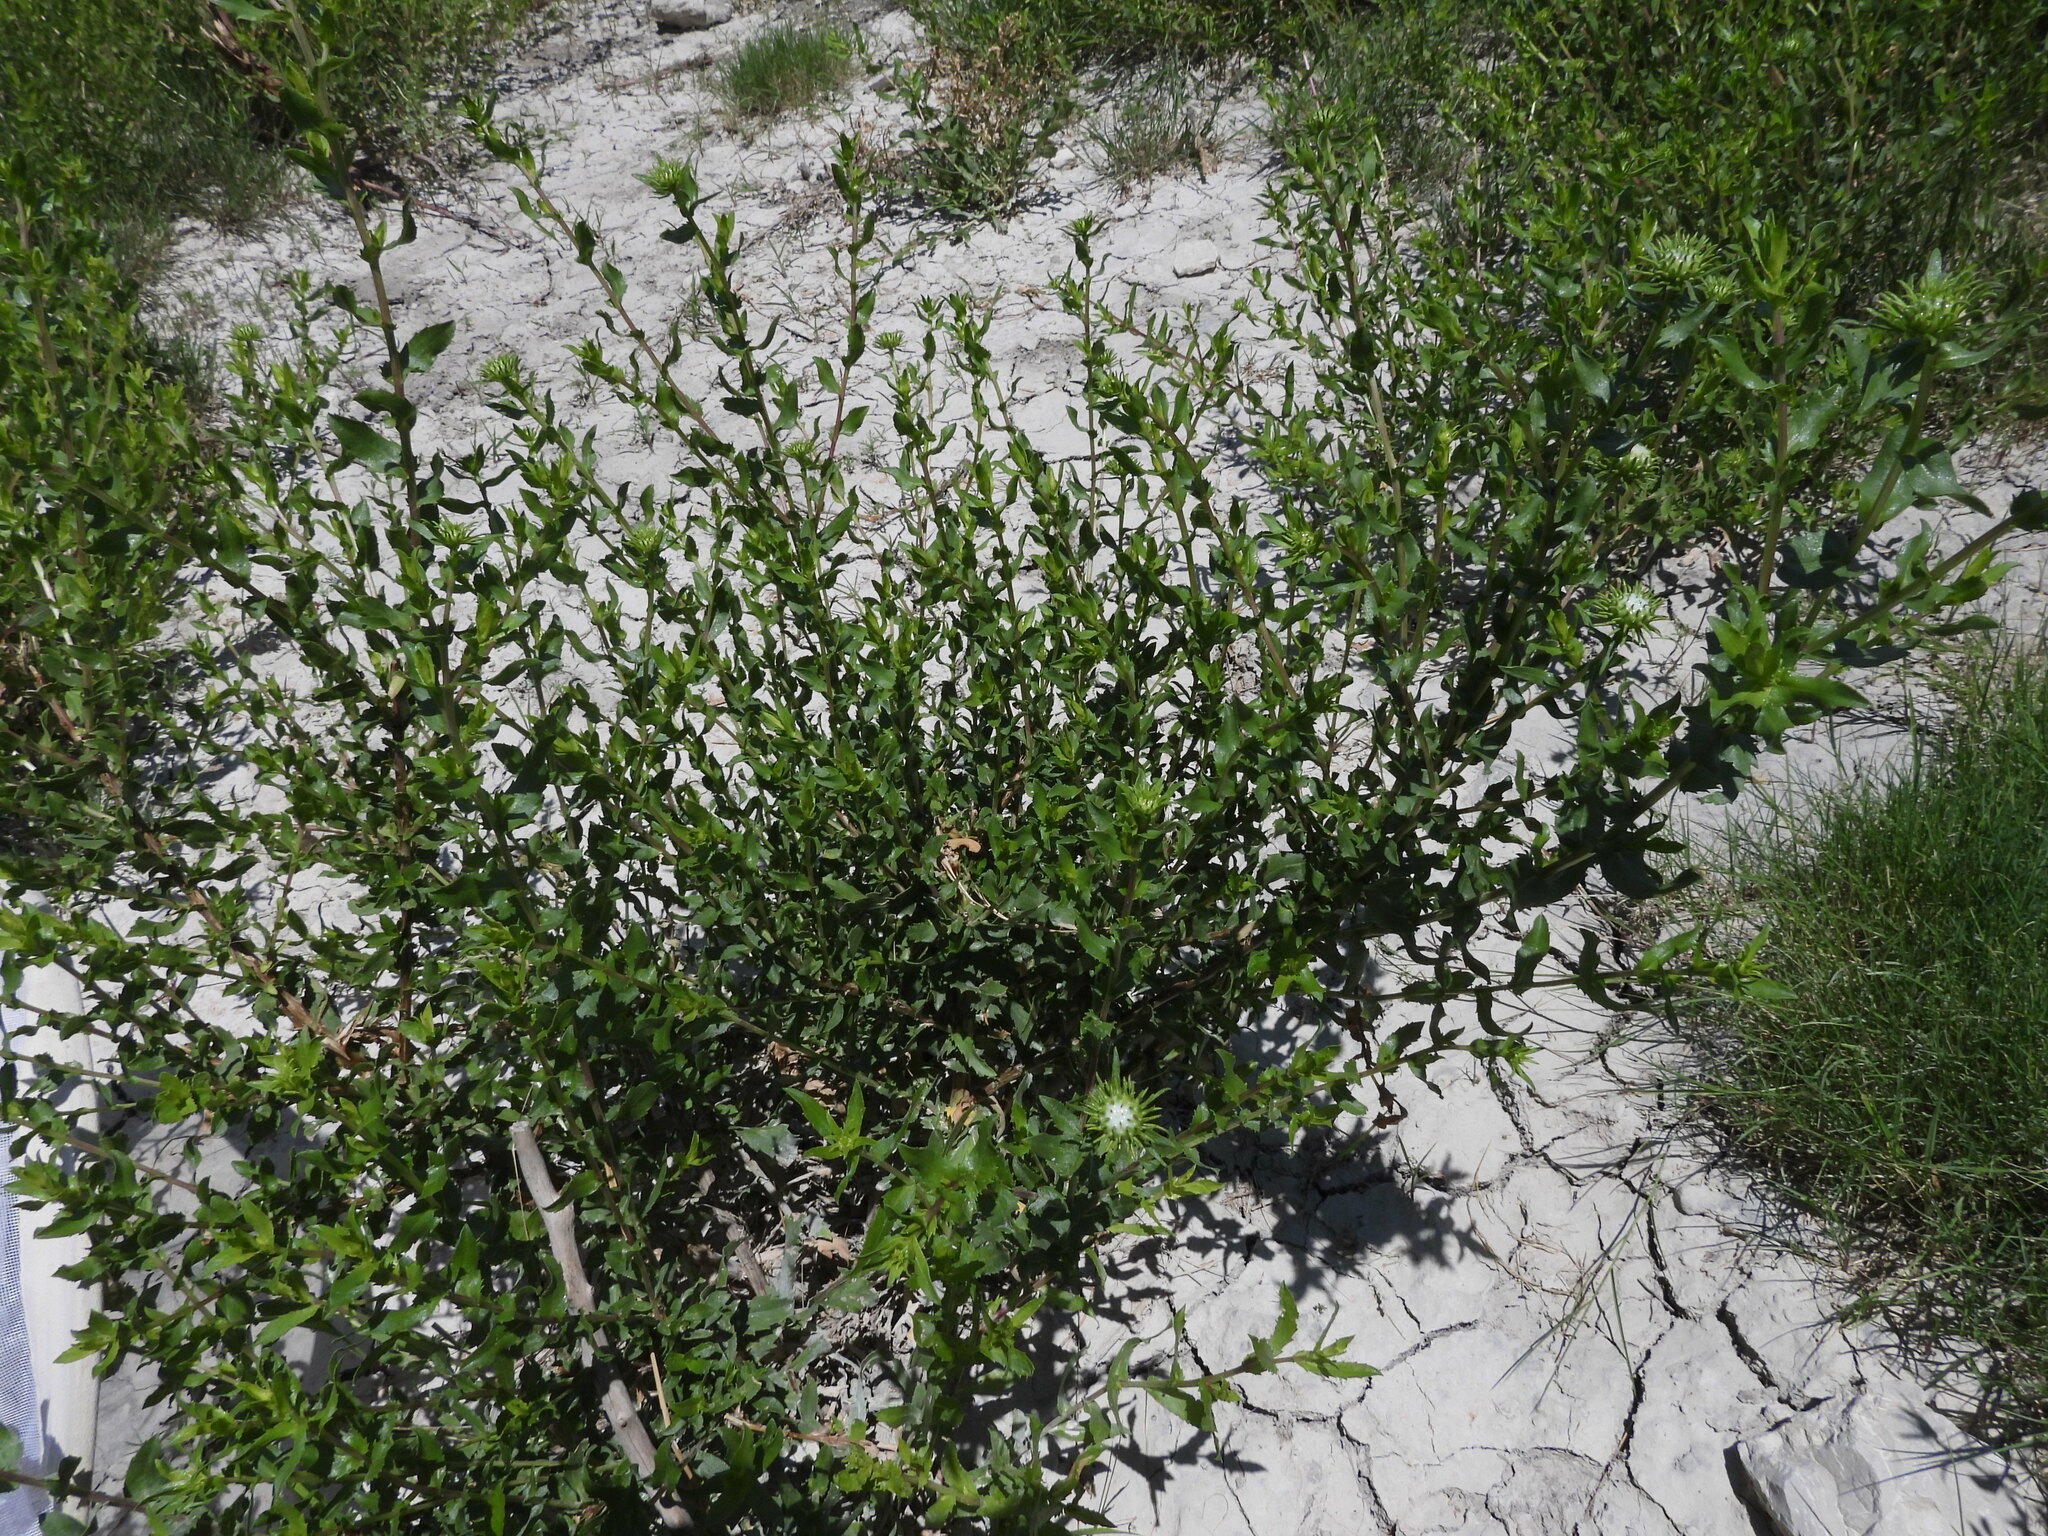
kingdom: Plantae
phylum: Tracheophyta
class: Magnoliopsida
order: Asterales
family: Asteraceae
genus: Grindelia
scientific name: Grindelia nuda
